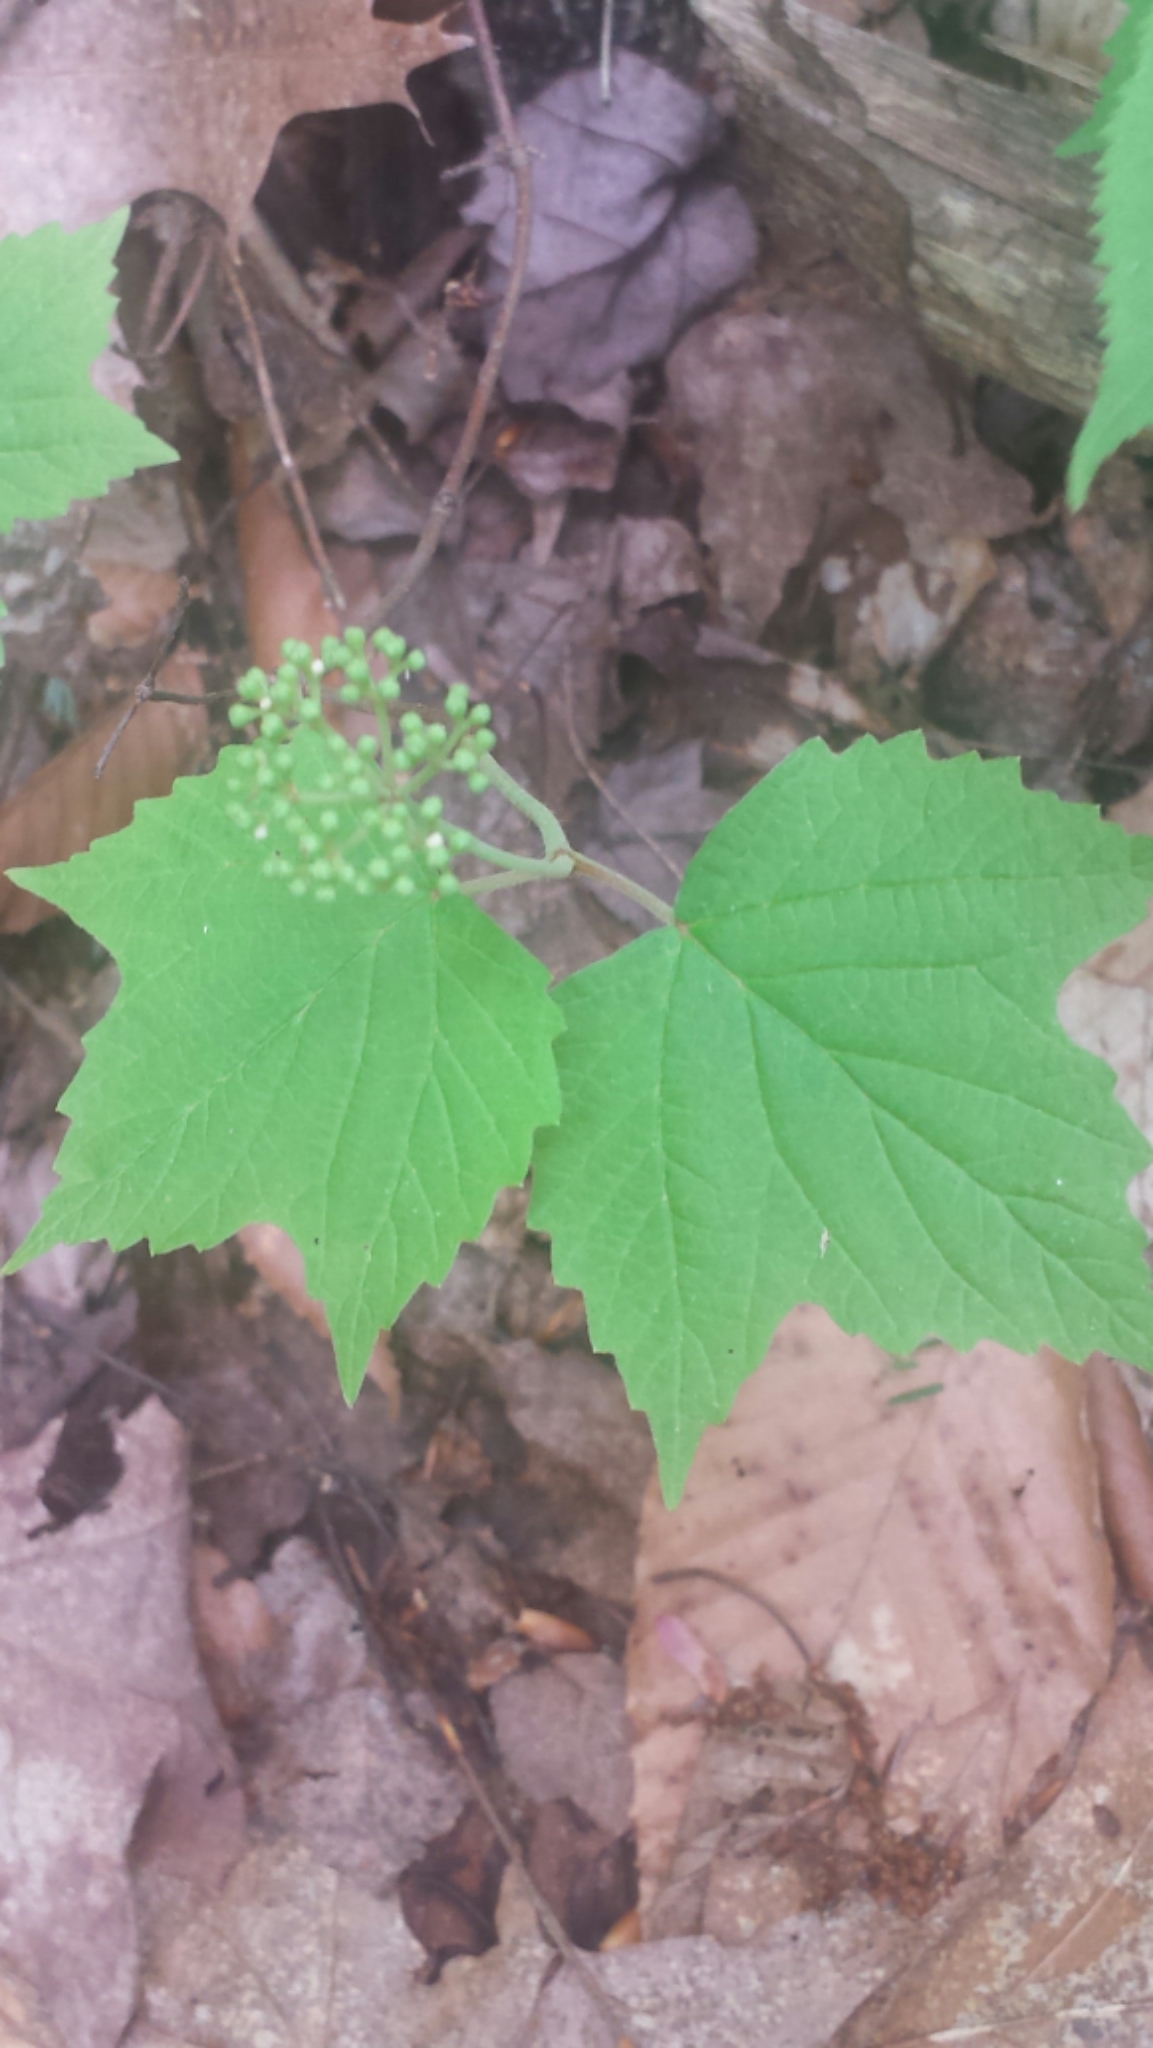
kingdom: Plantae
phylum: Tracheophyta
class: Magnoliopsida
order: Dipsacales
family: Viburnaceae
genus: Viburnum
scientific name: Viburnum acerifolium
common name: Dockmackie
